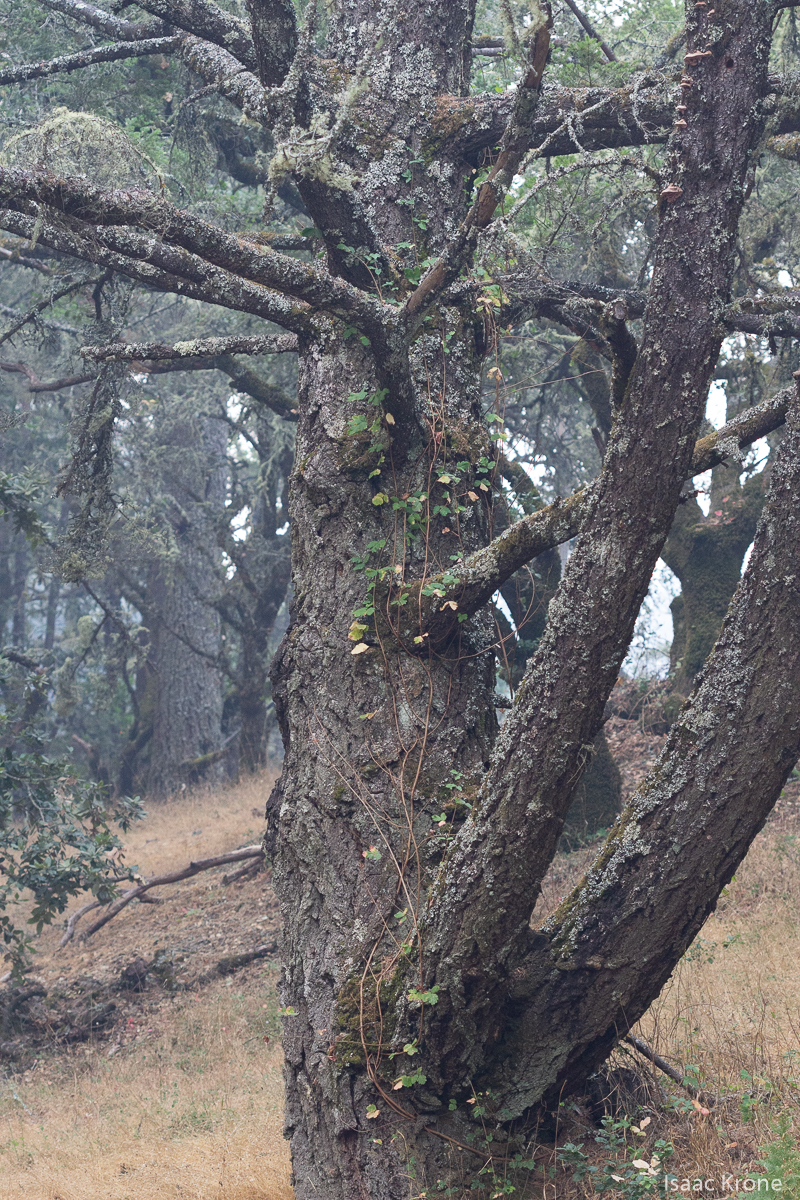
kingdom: Plantae
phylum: Tracheophyta
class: Magnoliopsida
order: Sapindales
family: Anacardiaceae
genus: Toxicodendron
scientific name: Toxicodendron diversilobum
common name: Pacific poison-oak
